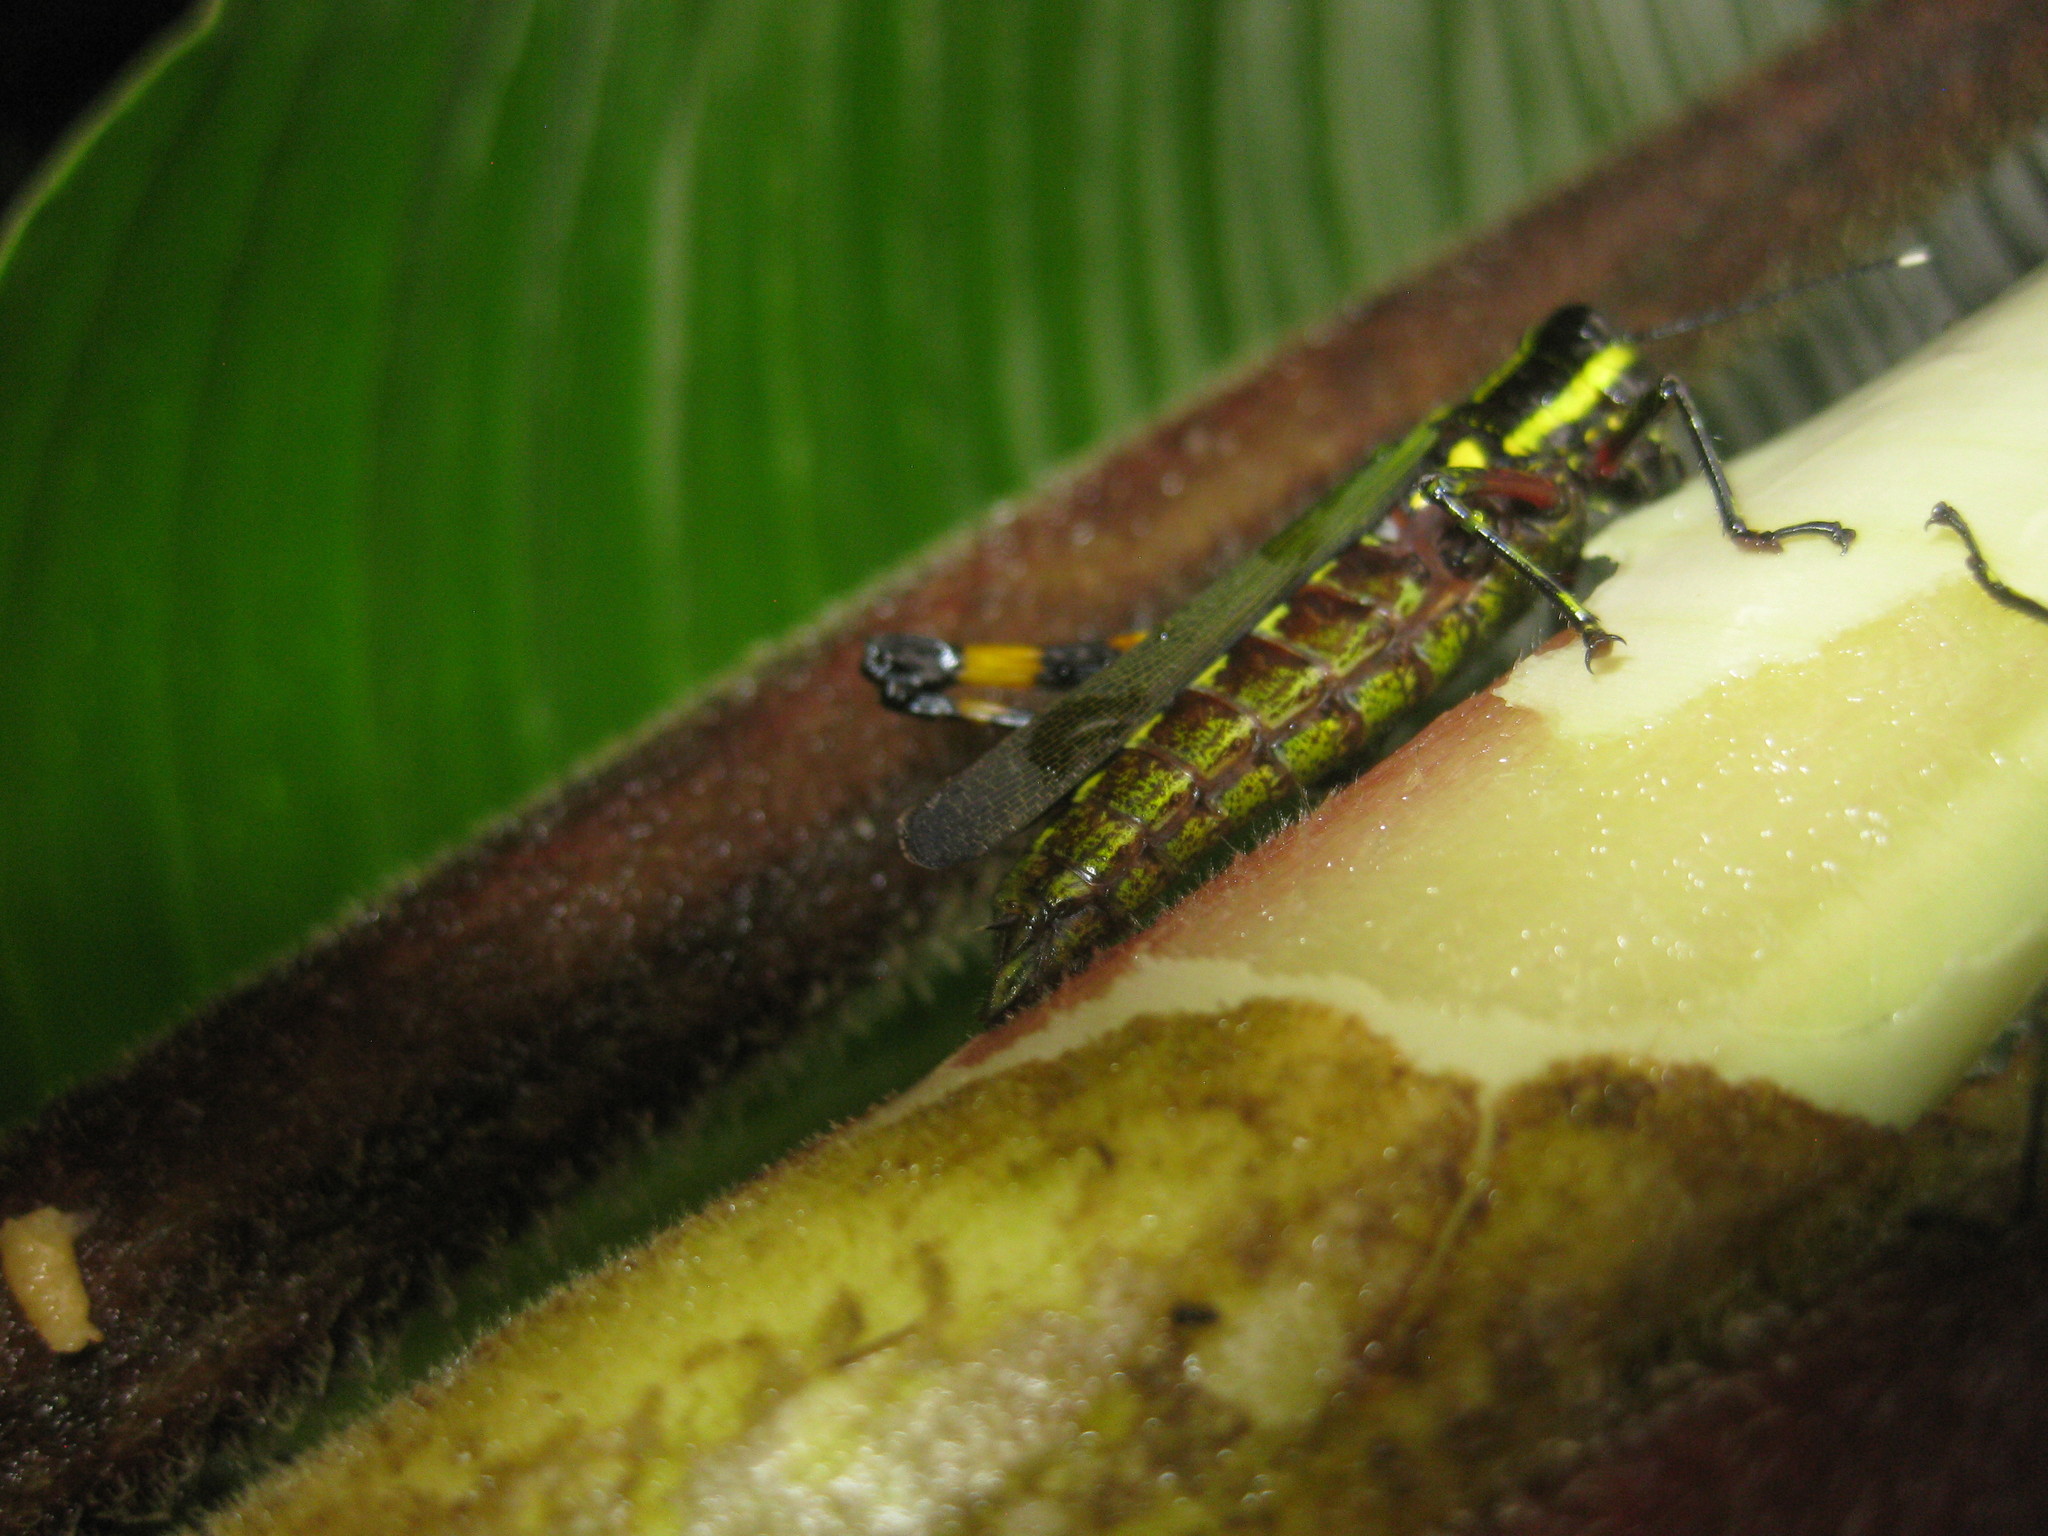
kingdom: Animalia
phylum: Arthropoda
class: Insecta
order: Orthoptera
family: Acrididae
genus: Tetrataenia
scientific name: Tetrataenia surinama
